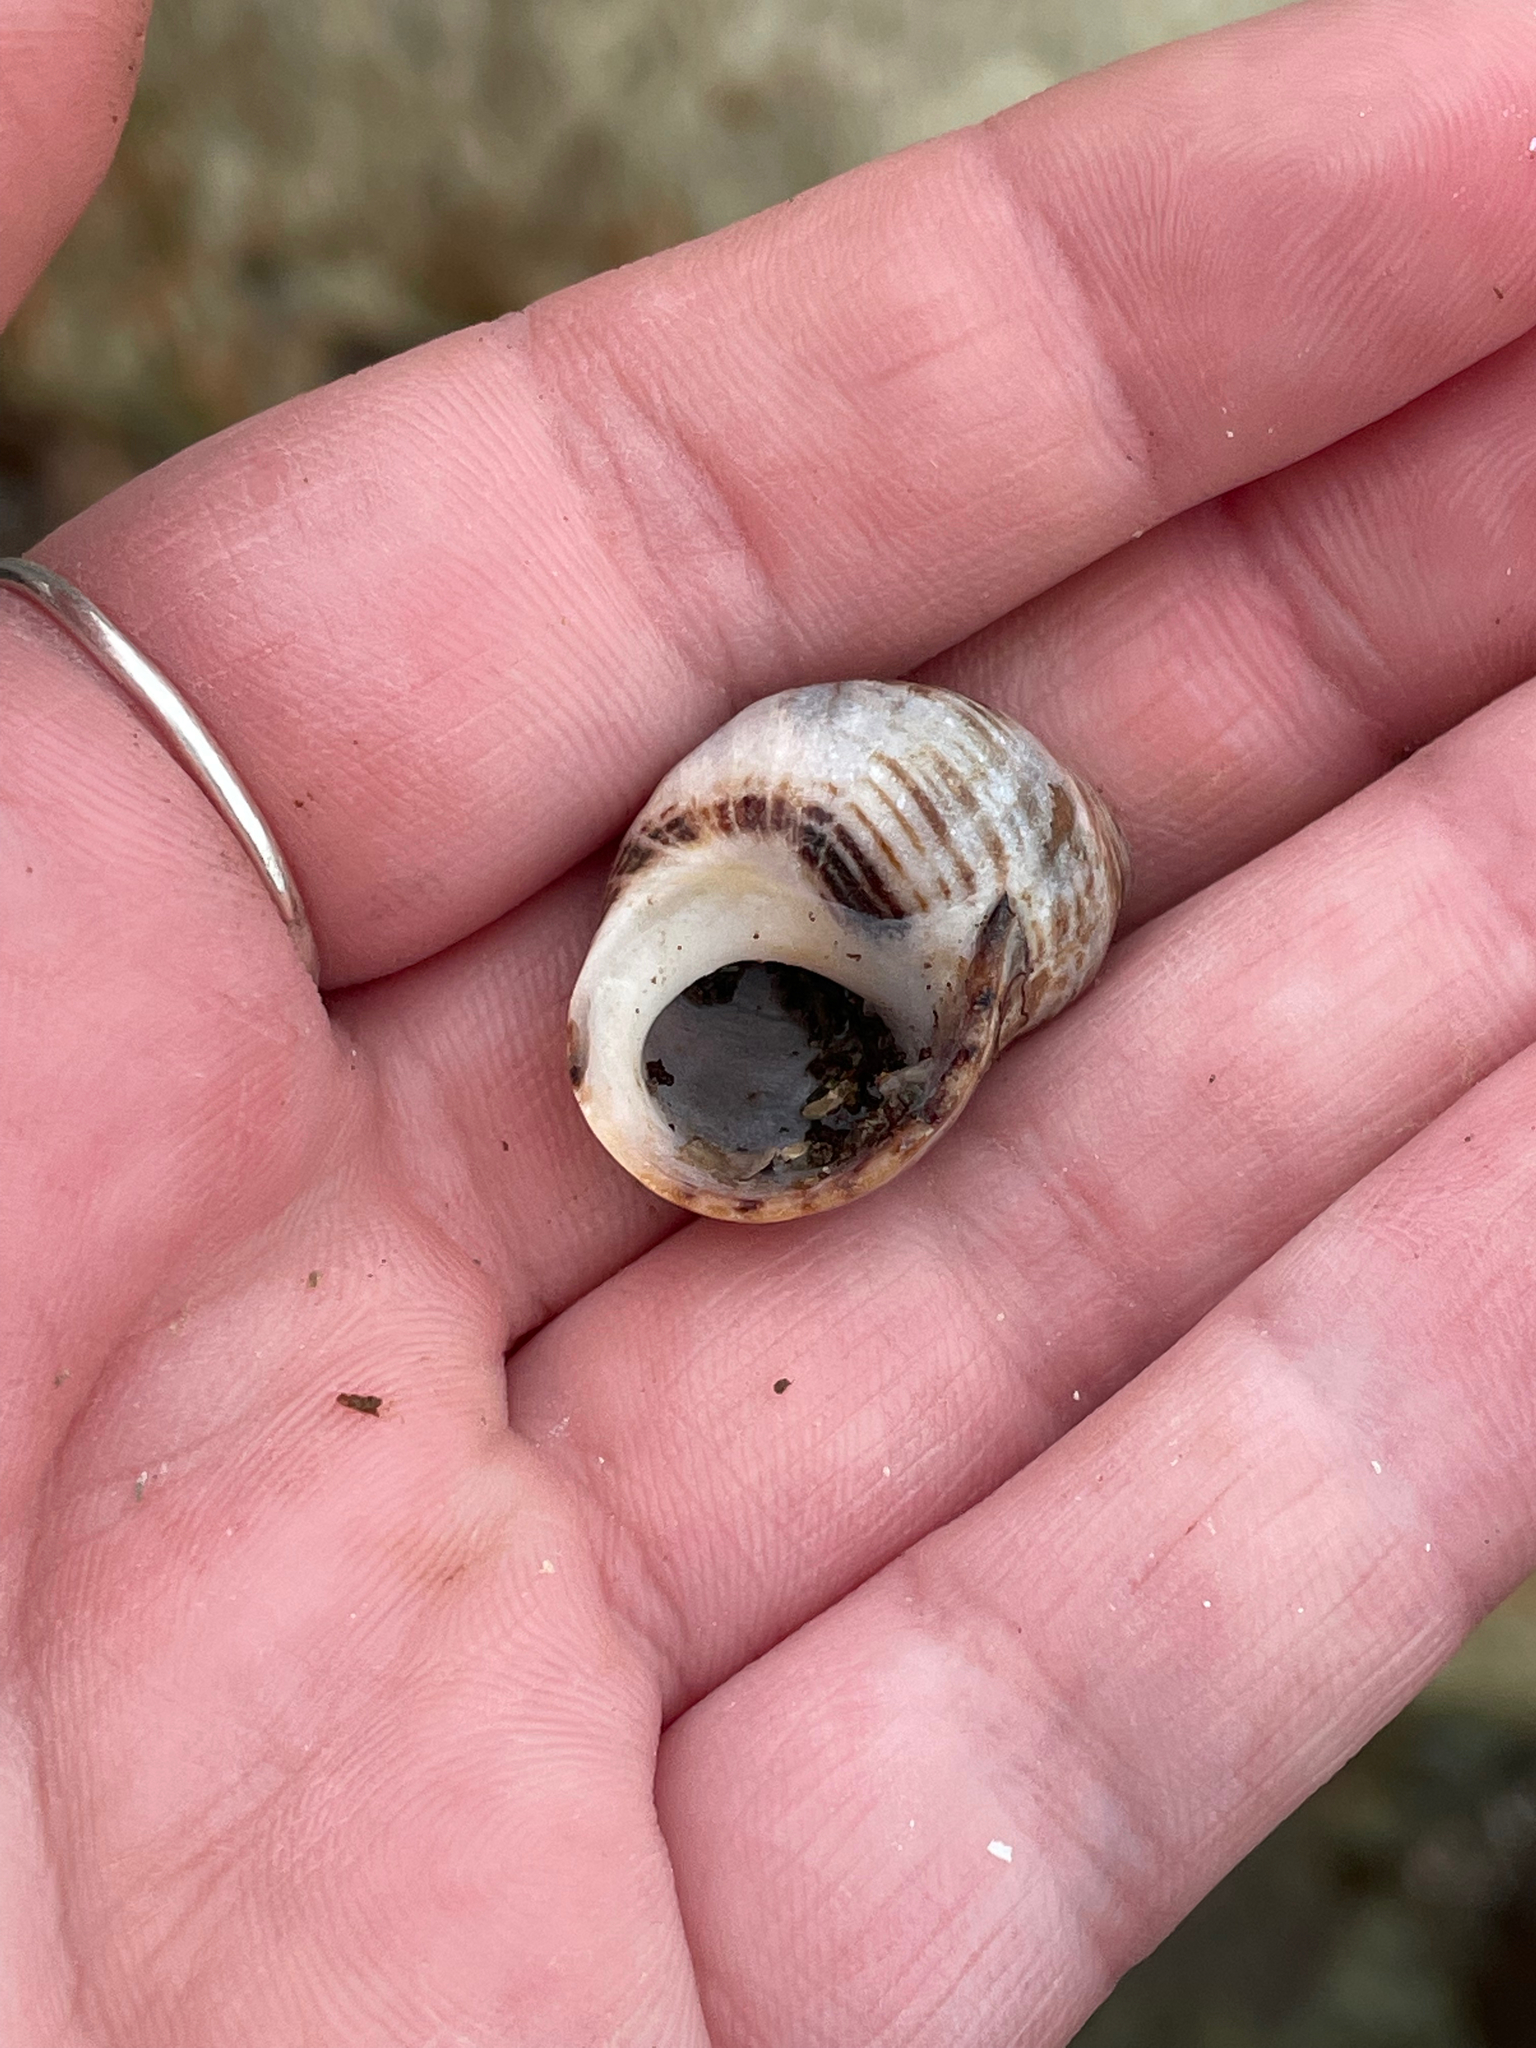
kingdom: Animalia
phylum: Mollusca
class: Gastropoda
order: Littorinimorpha
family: Littorinidae
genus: Littorina
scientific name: Littorina littorea
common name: Common periwinkle
